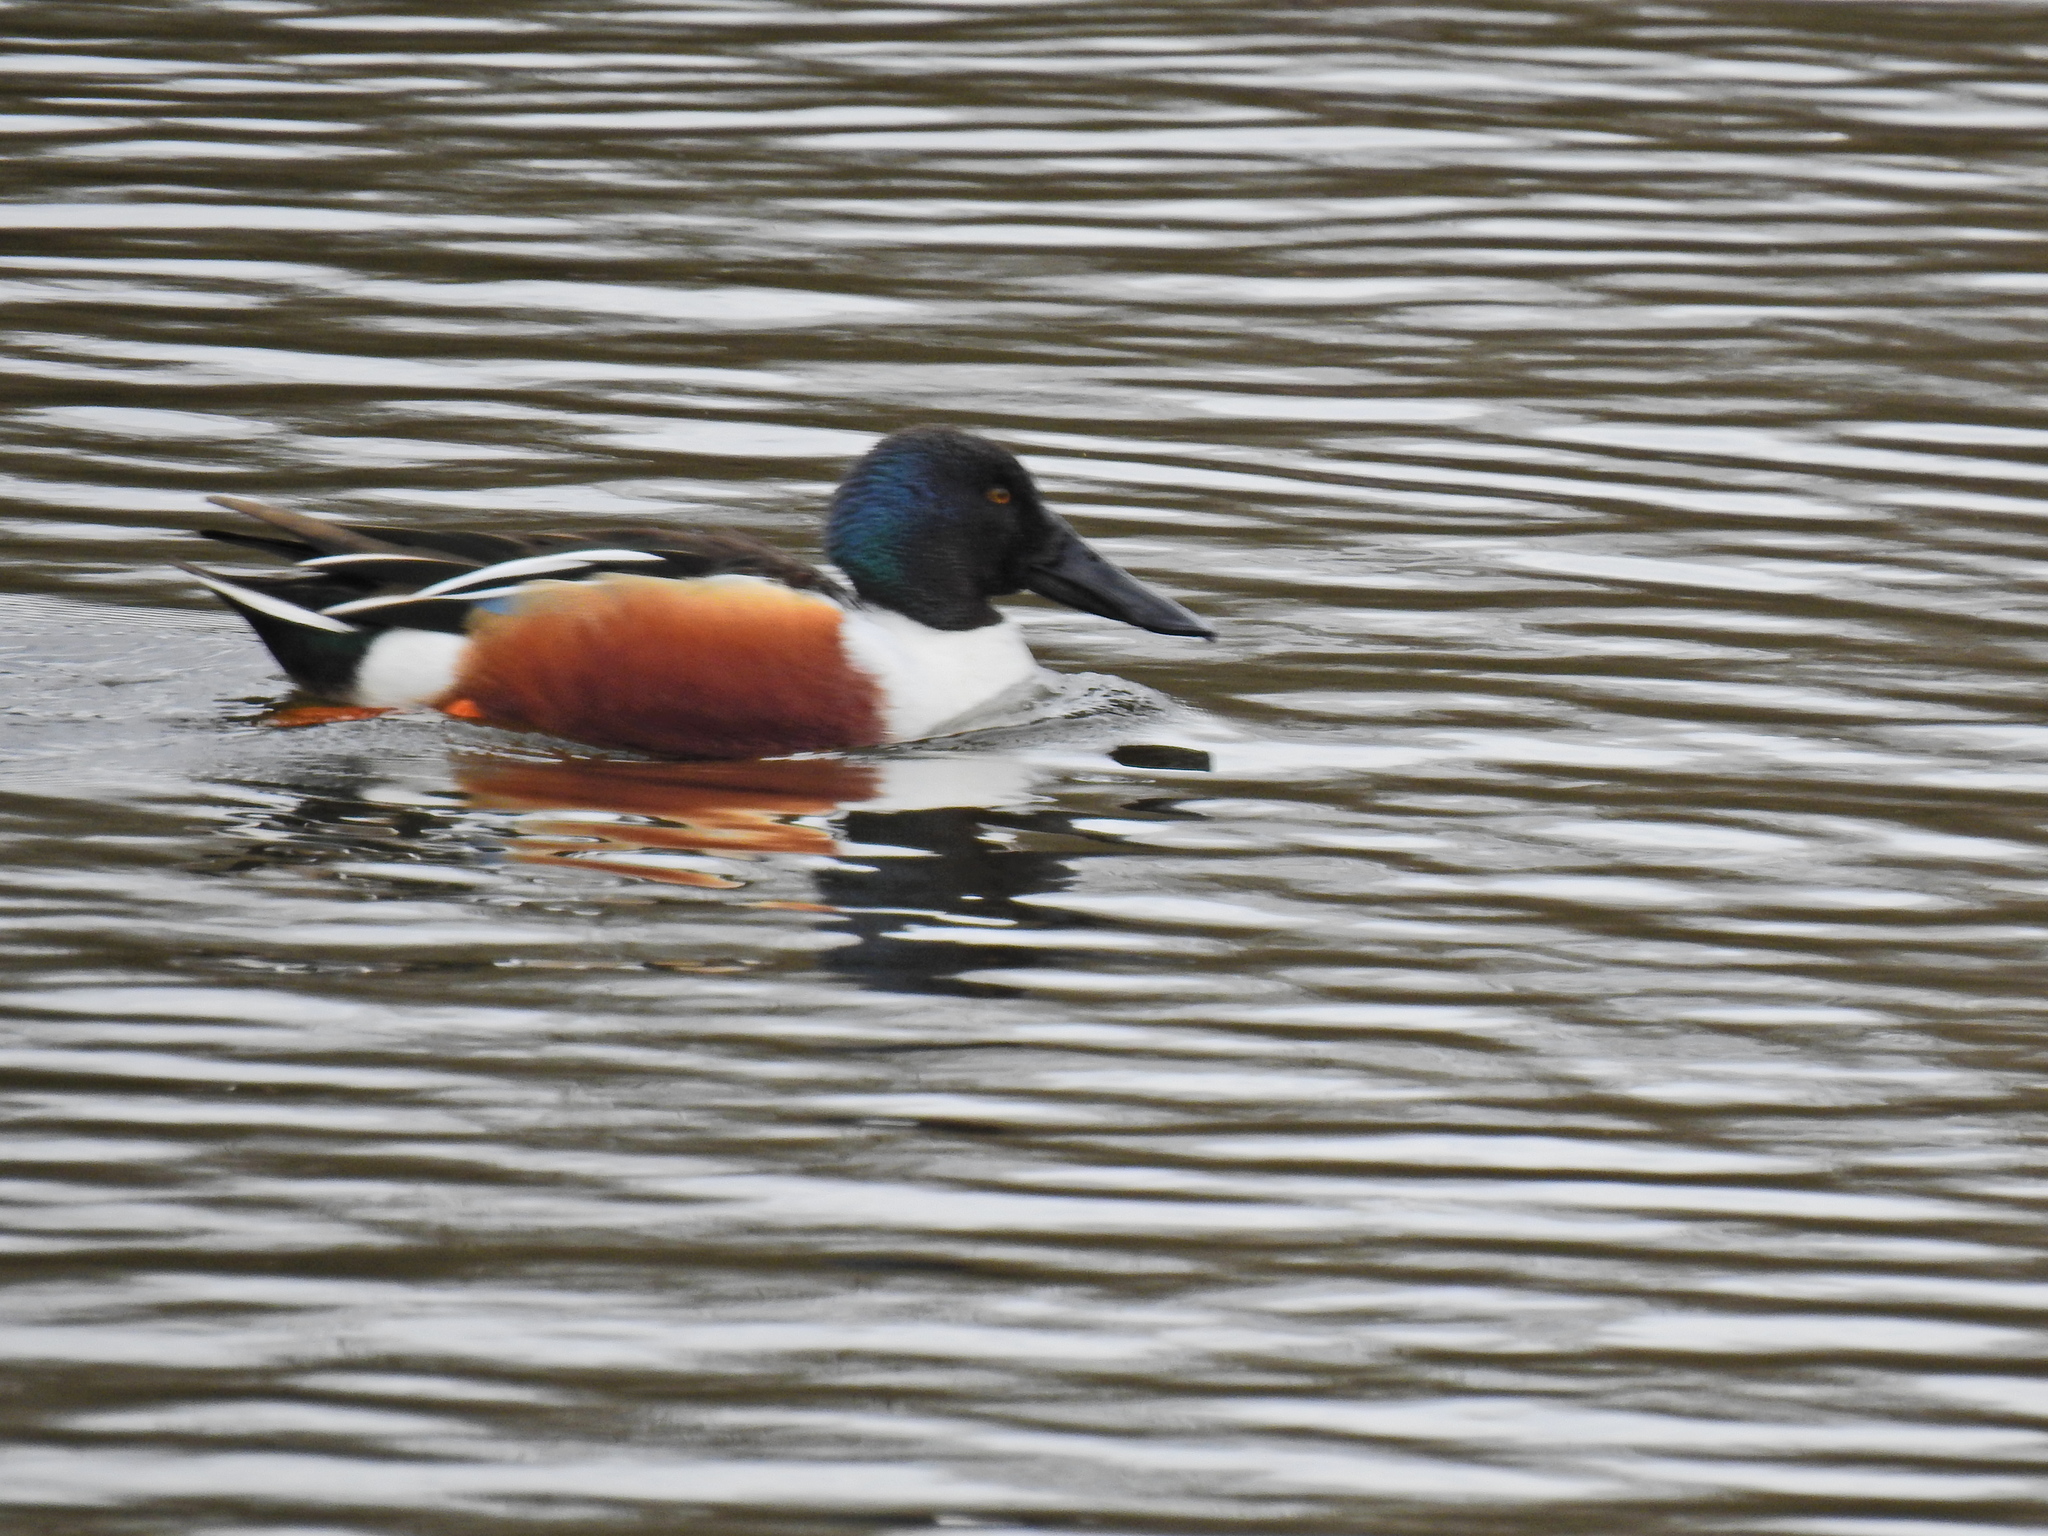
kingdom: Animalia
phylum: Chordata
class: Aves
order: Anseriformes
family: Anatidae
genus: Spatula
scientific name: Spatula clypeata
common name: Northern shoveler
